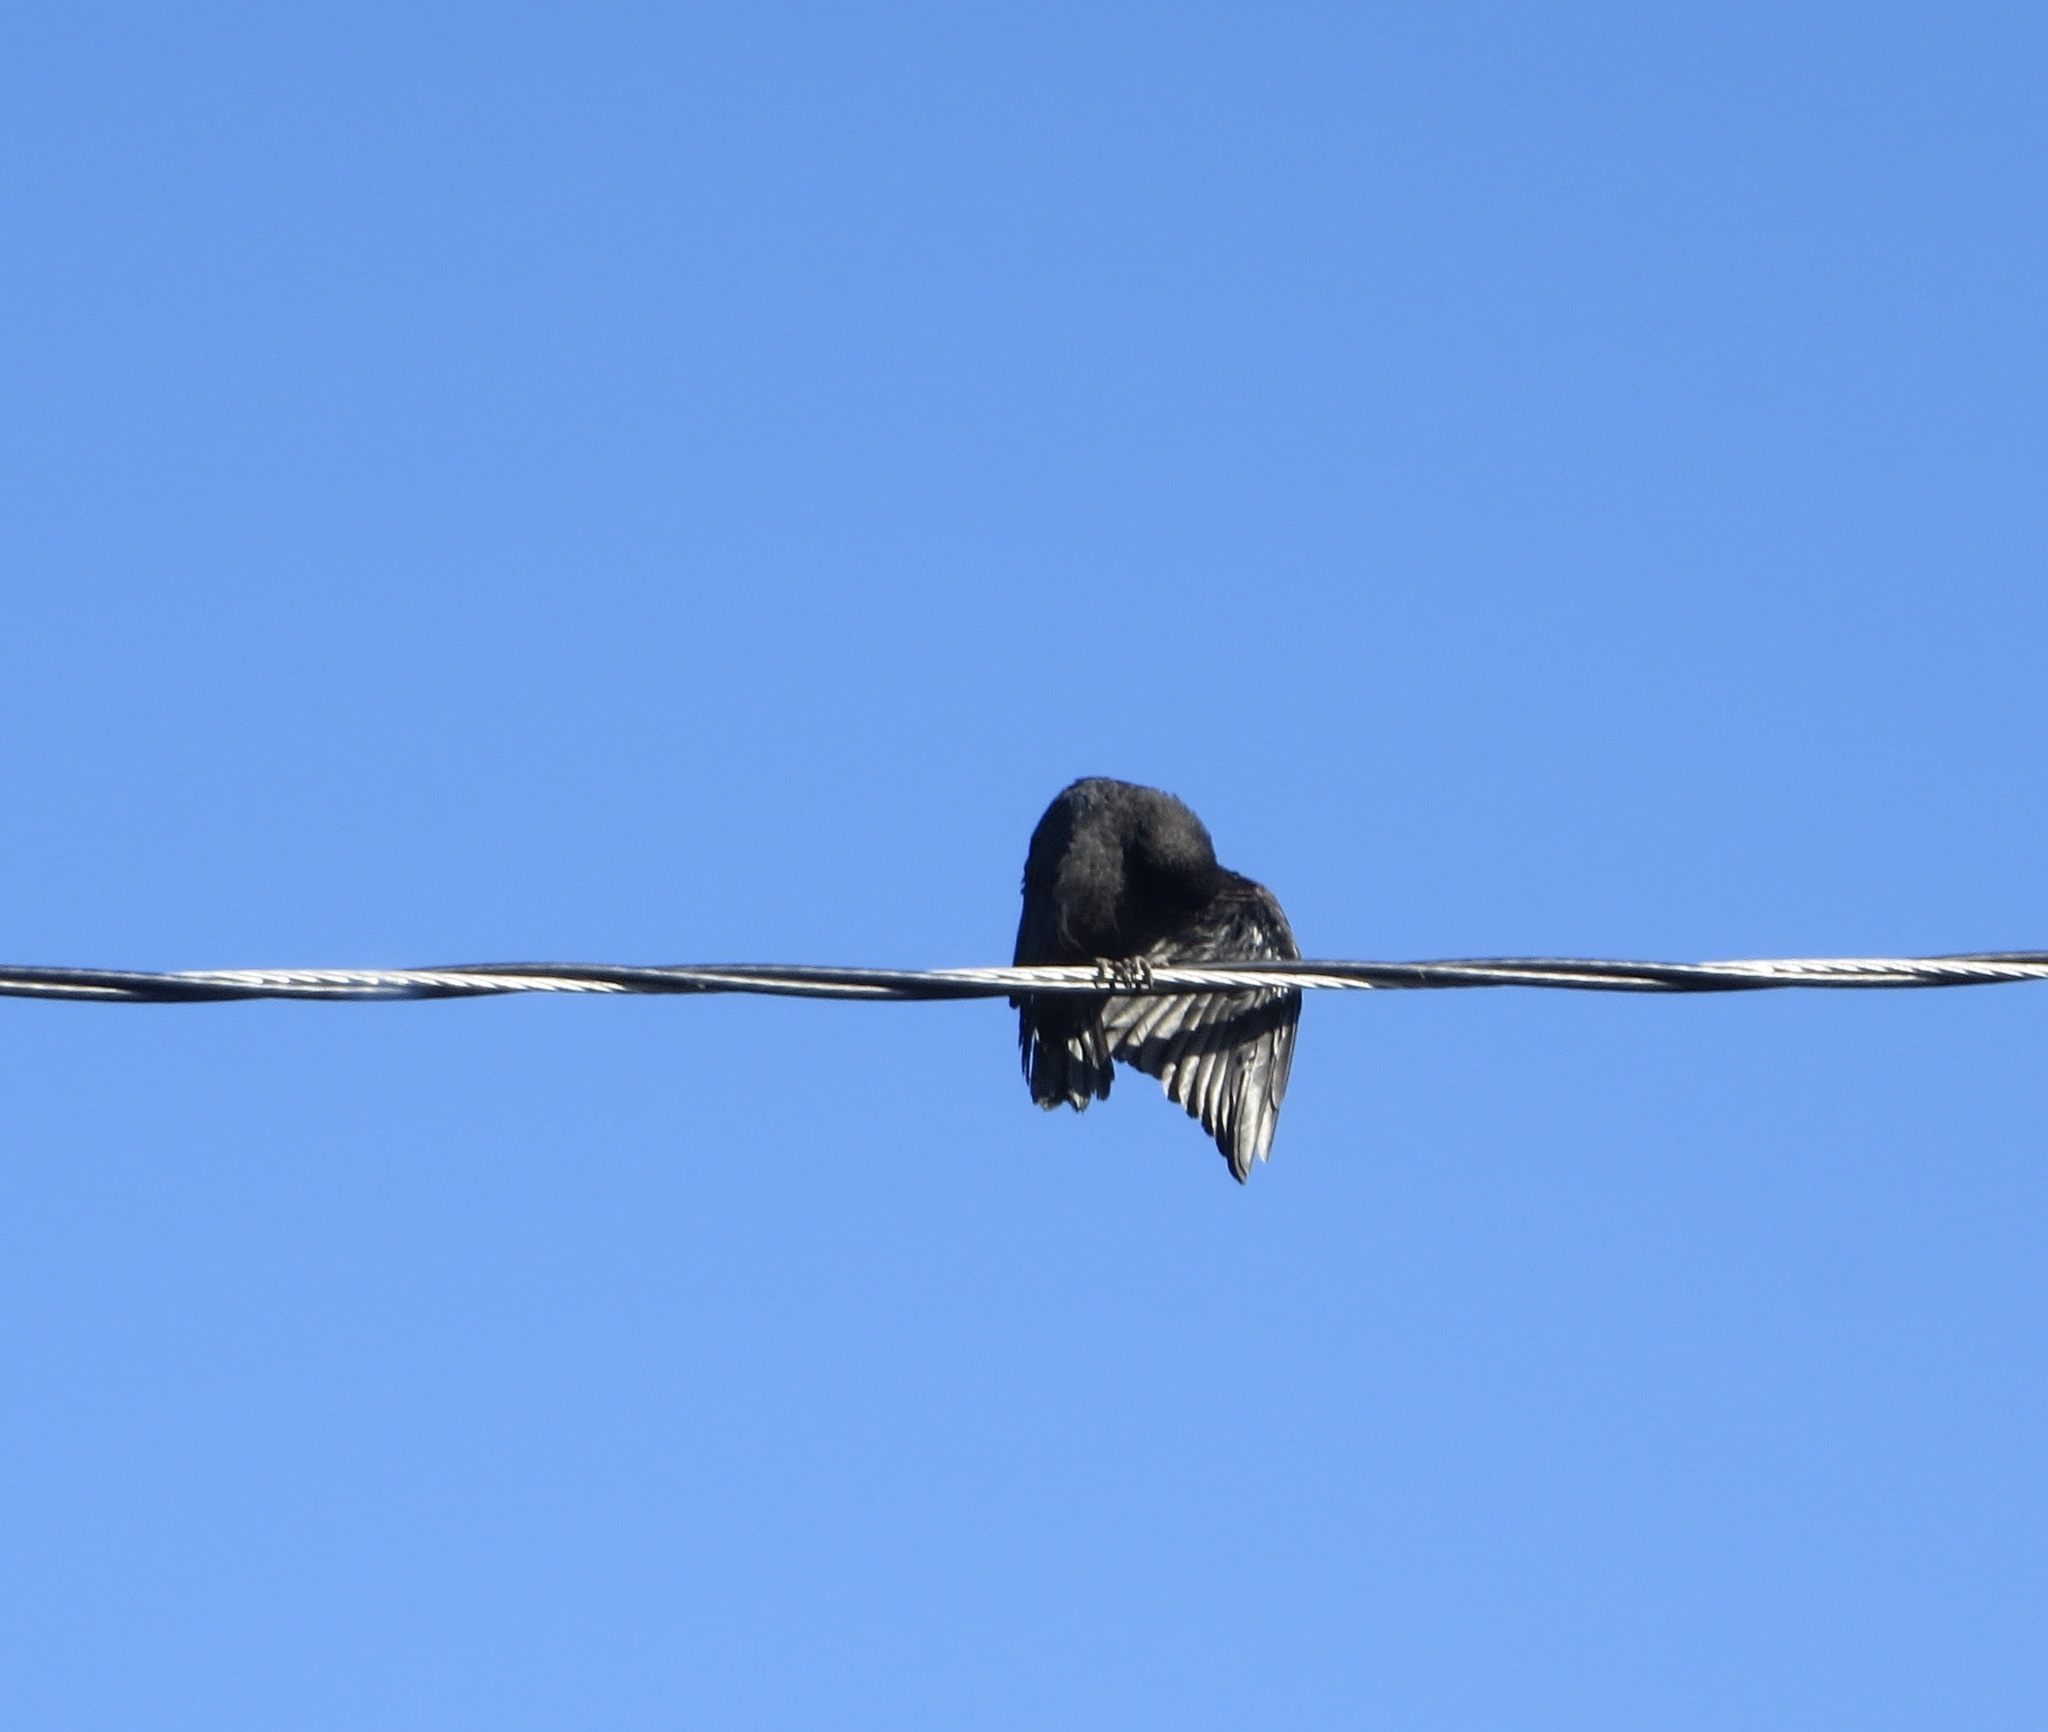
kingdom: Animalia
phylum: Chordata
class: Aves
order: Passeriformes
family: Corvidae
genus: Corvus
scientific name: Corvus brachyrhynchos
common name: American crow
